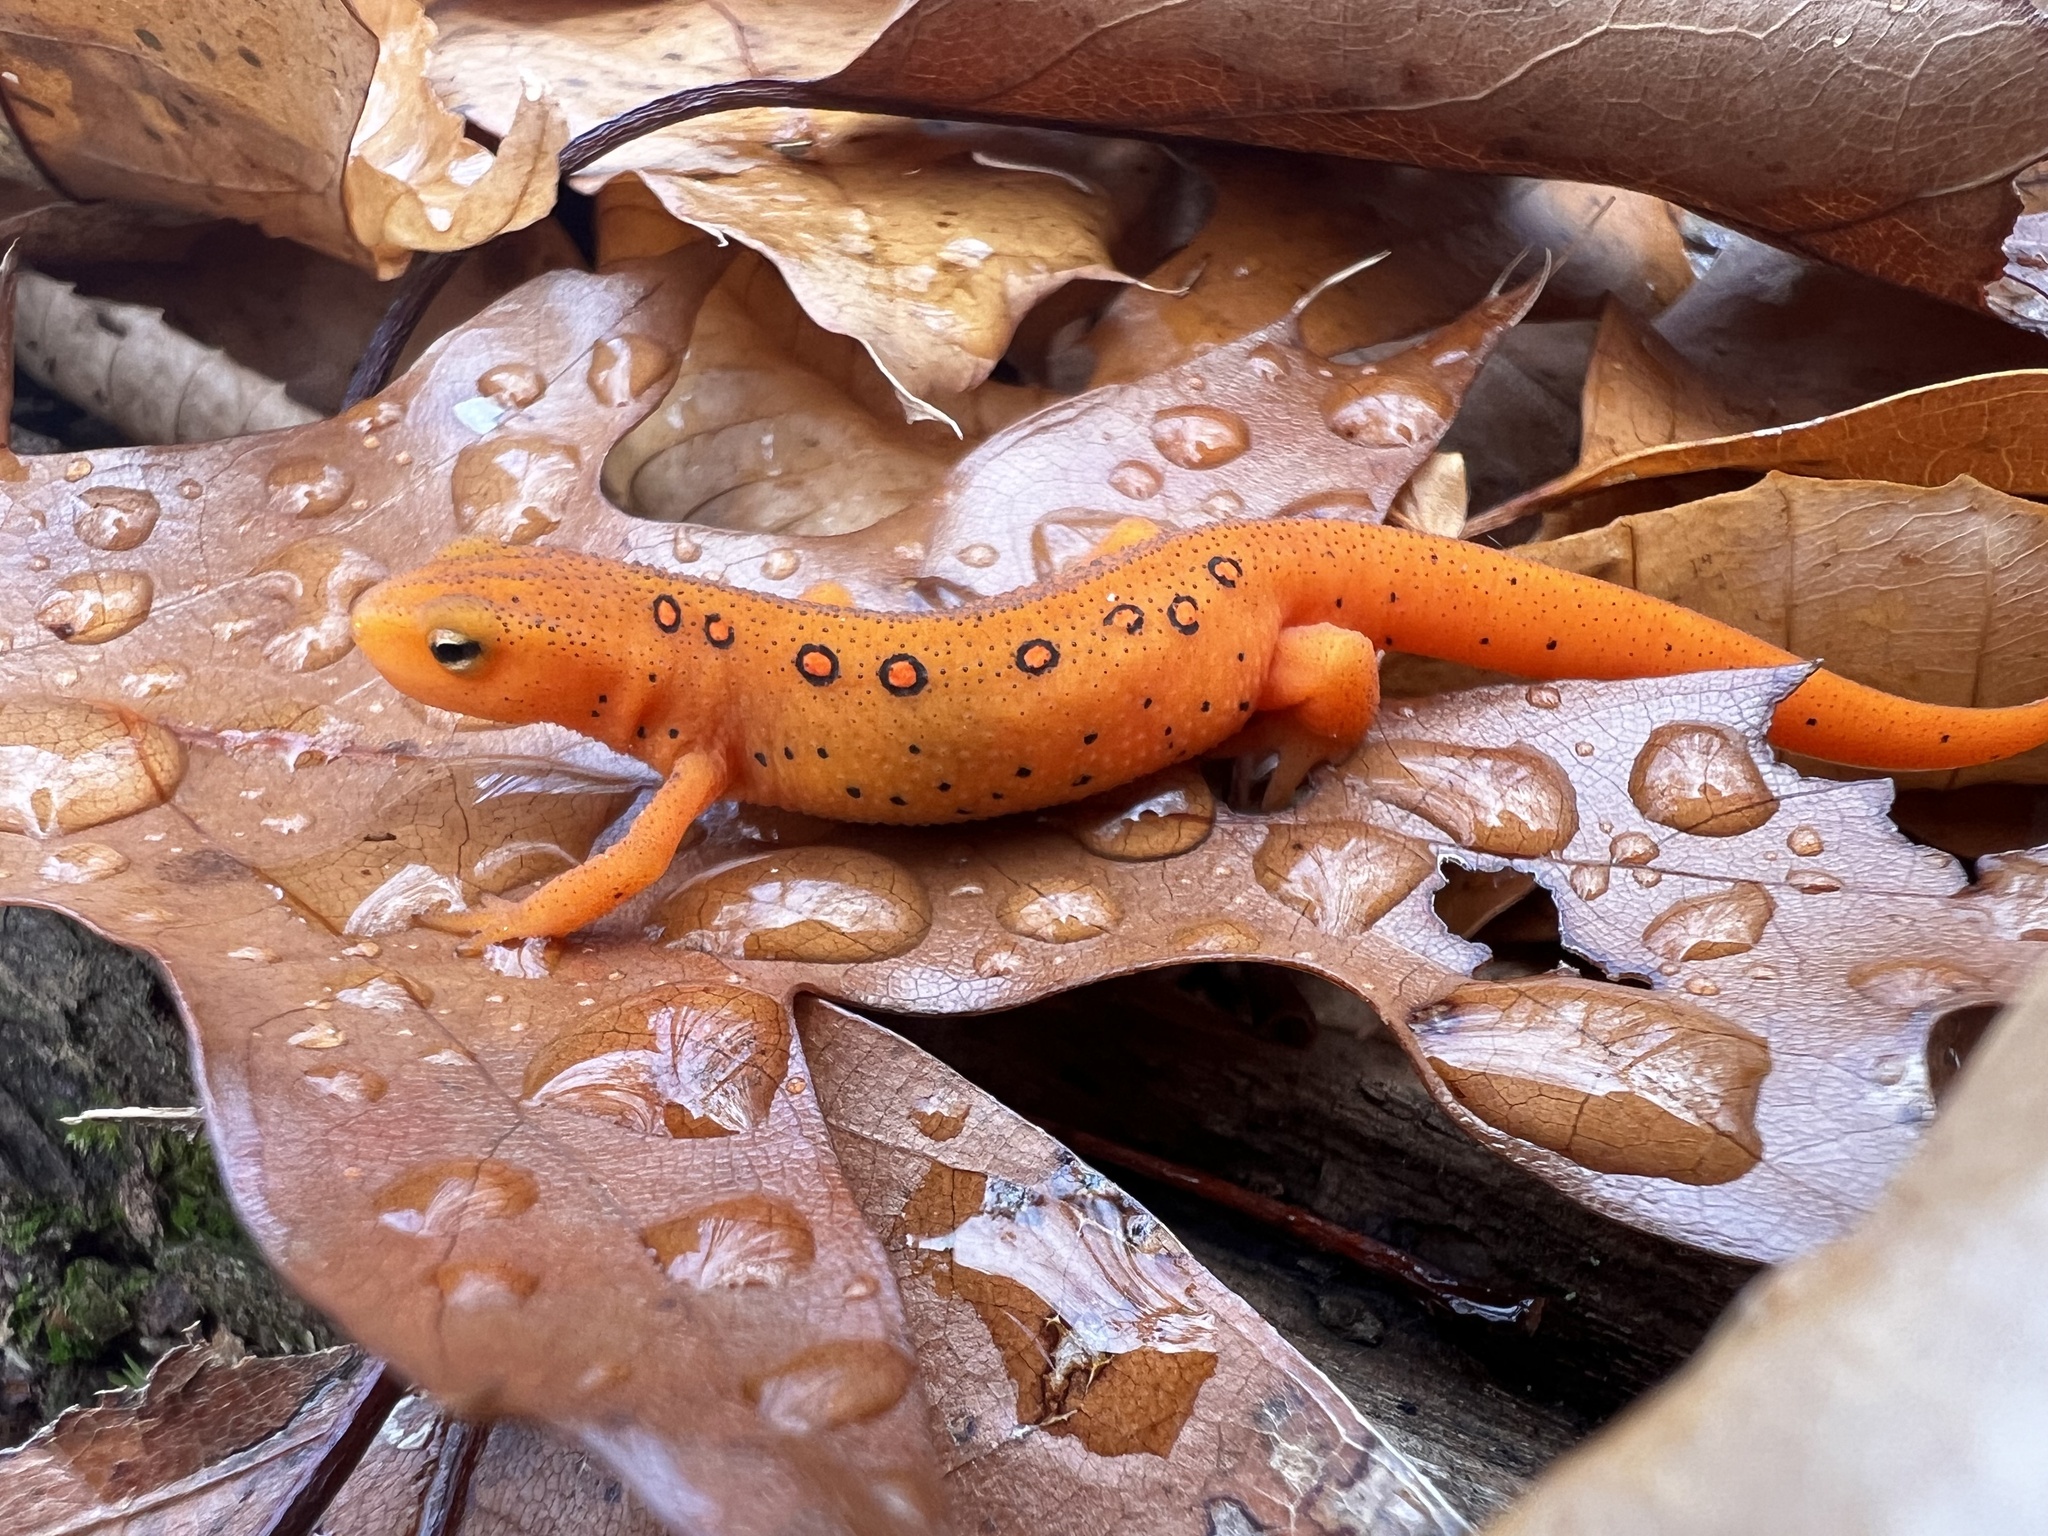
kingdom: Animalia
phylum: Chordata
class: Amphibia
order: Caudata
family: Salamandridae
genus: Notophthalmus
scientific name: Notophthalmus viridescens
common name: Eastern newt
